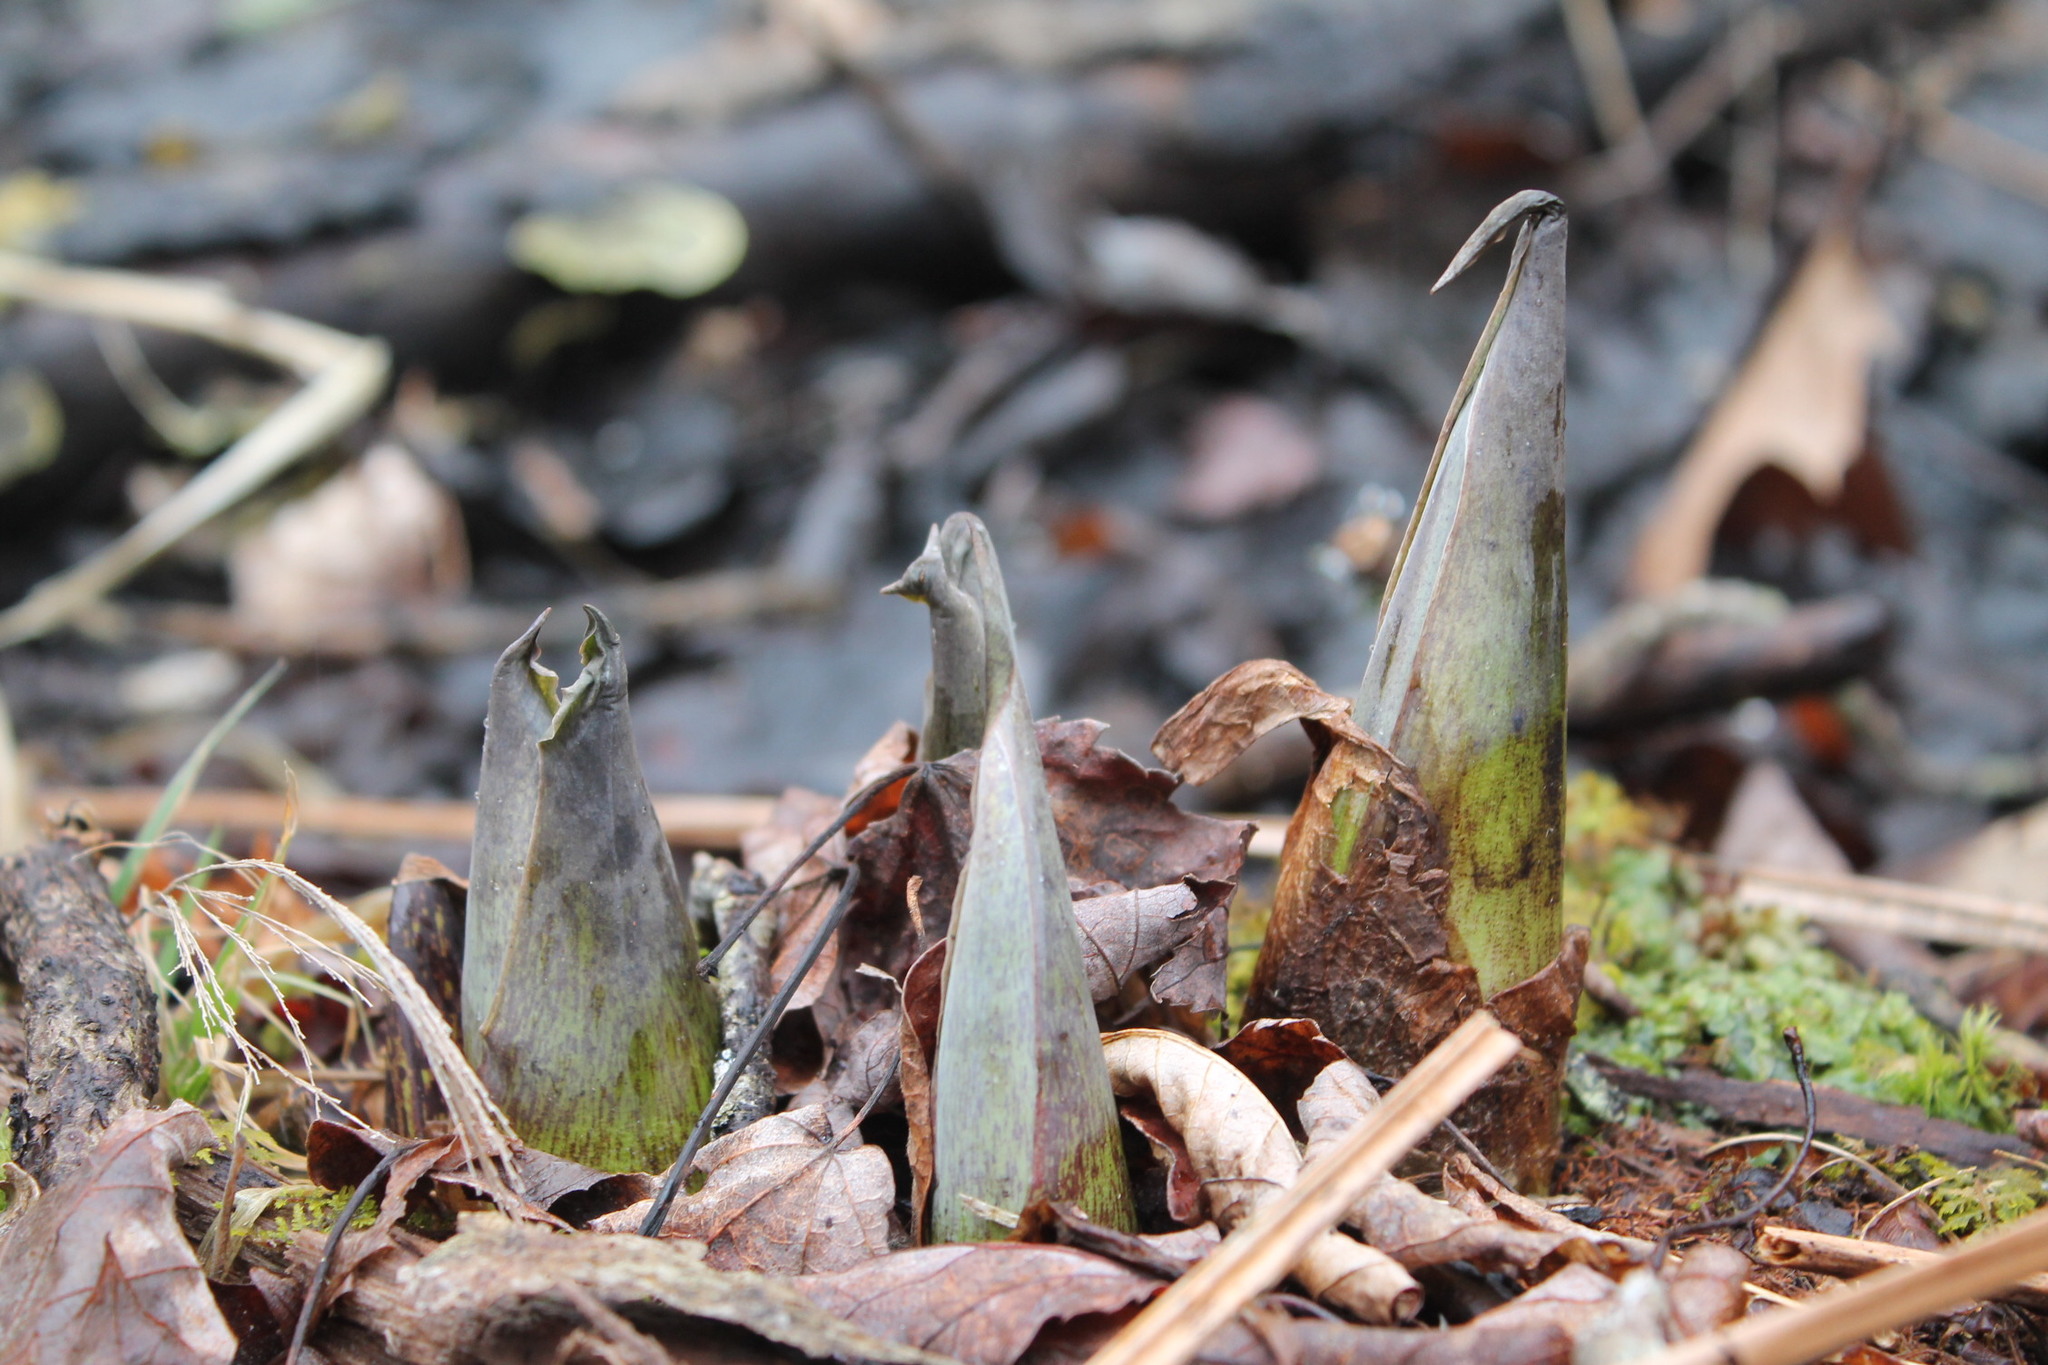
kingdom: Plantae
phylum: Tracheophyta
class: Liliopsida
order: Alismatales
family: Araceae
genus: Symplocarpus
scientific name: Symplocarpus foetidus
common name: Eastern skunk cabbage
